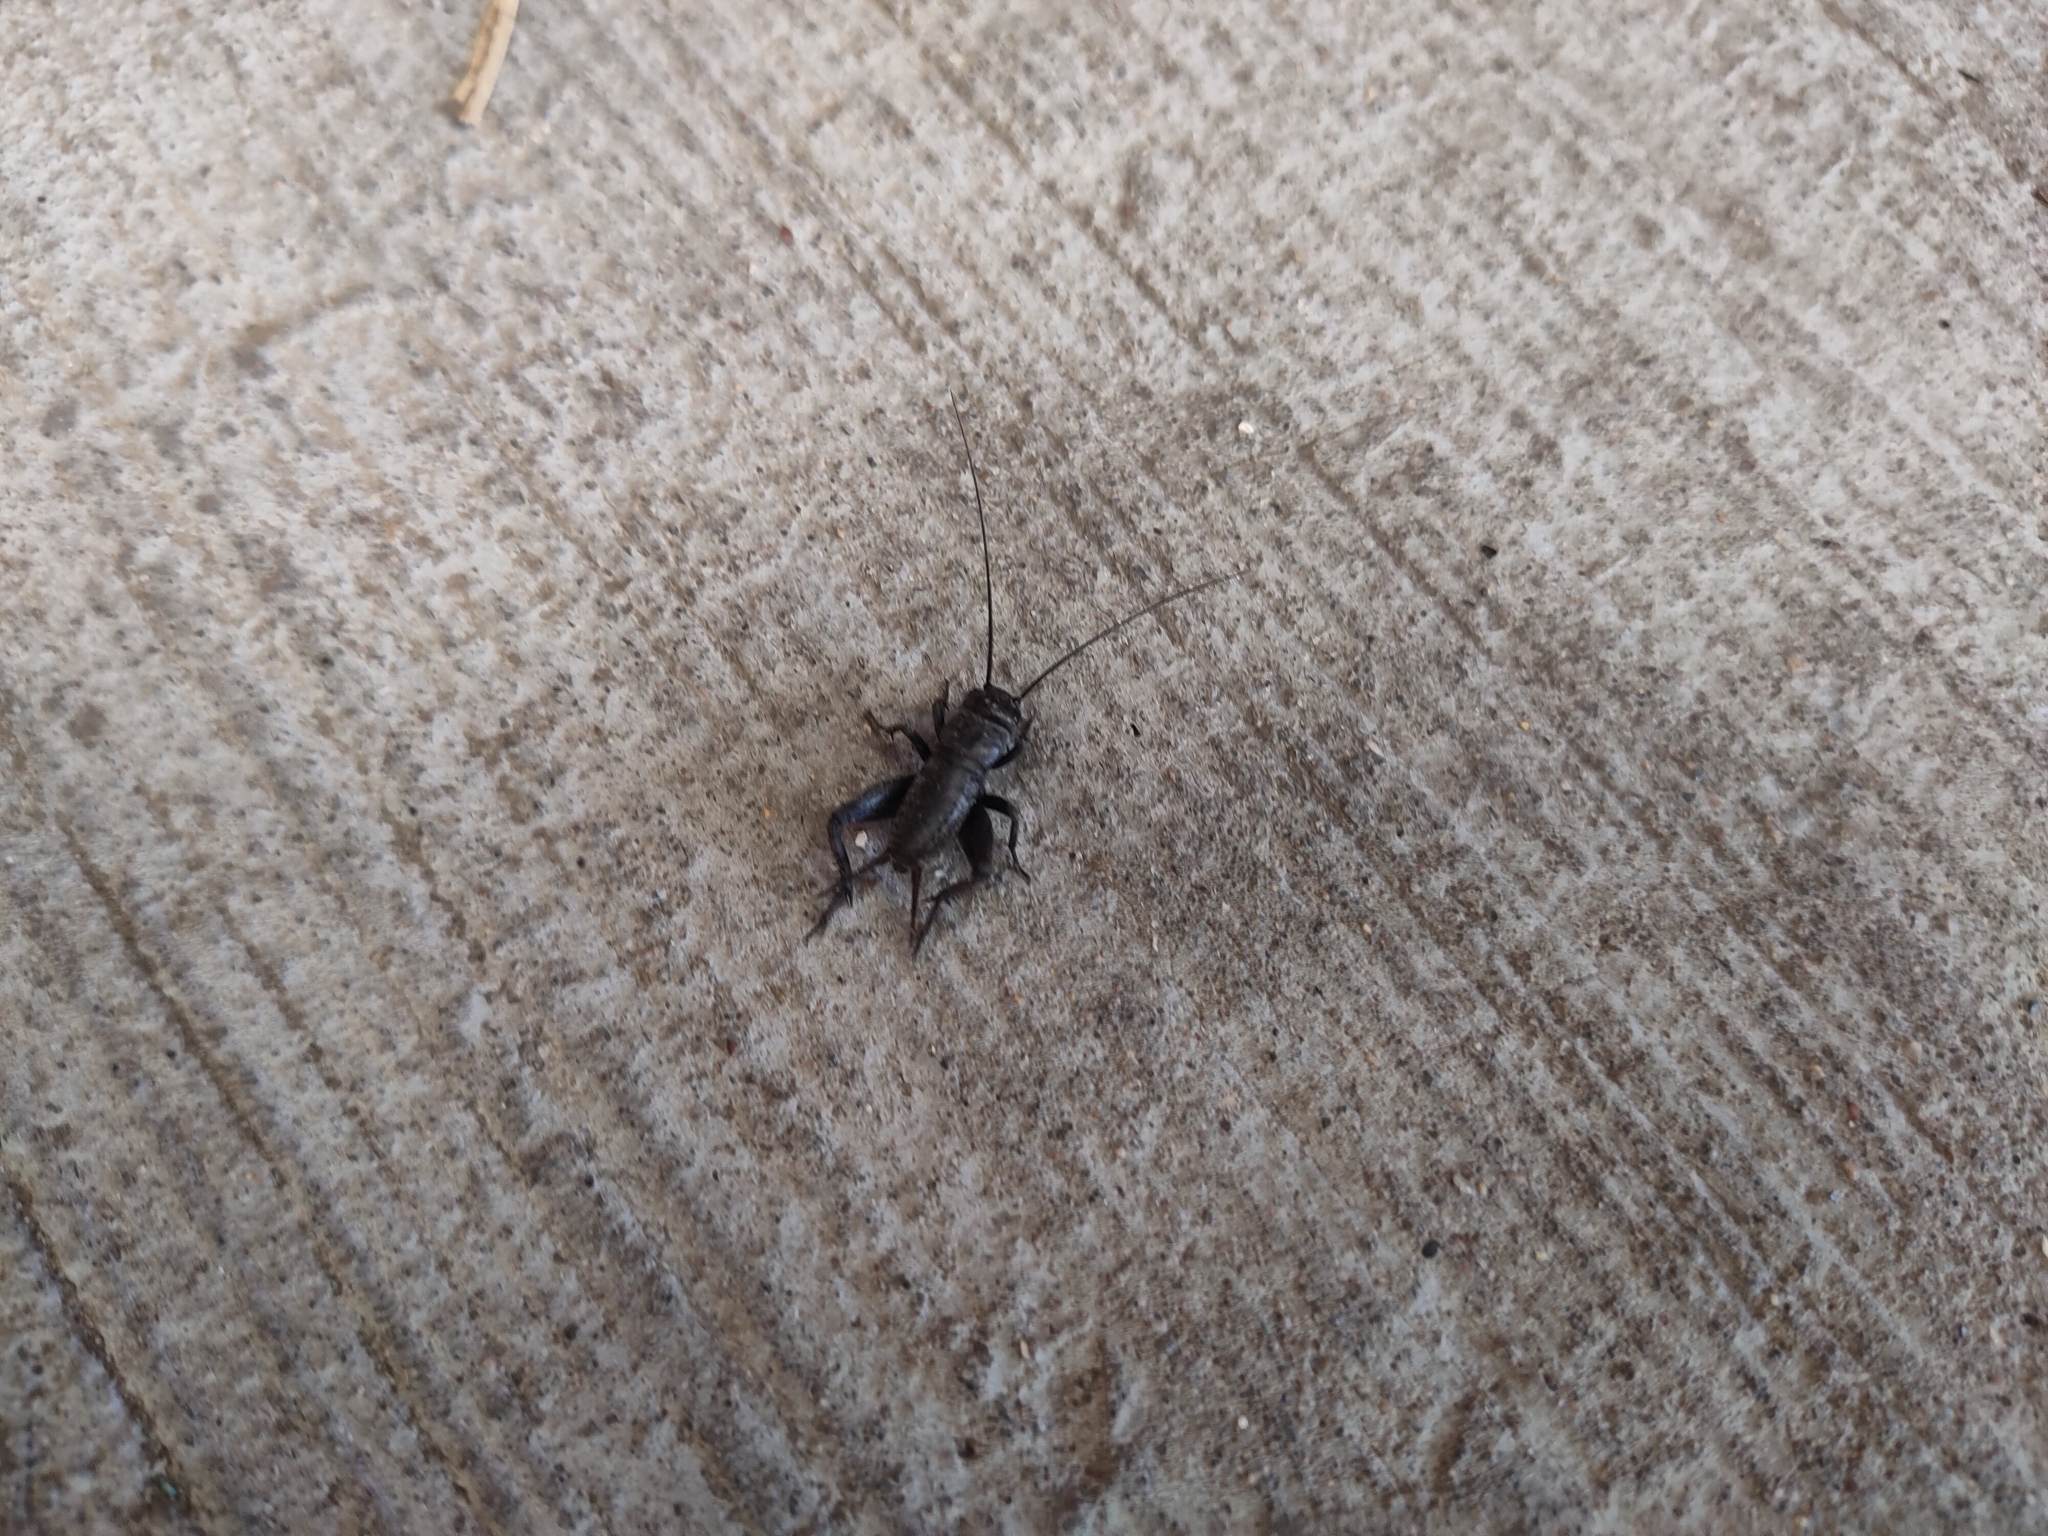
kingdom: Animalia
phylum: Arthropoda
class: Insecta
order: Orthoptera
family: Gryllidae
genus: Gryllus
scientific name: Gryllus veletis
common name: Spring field cricket
